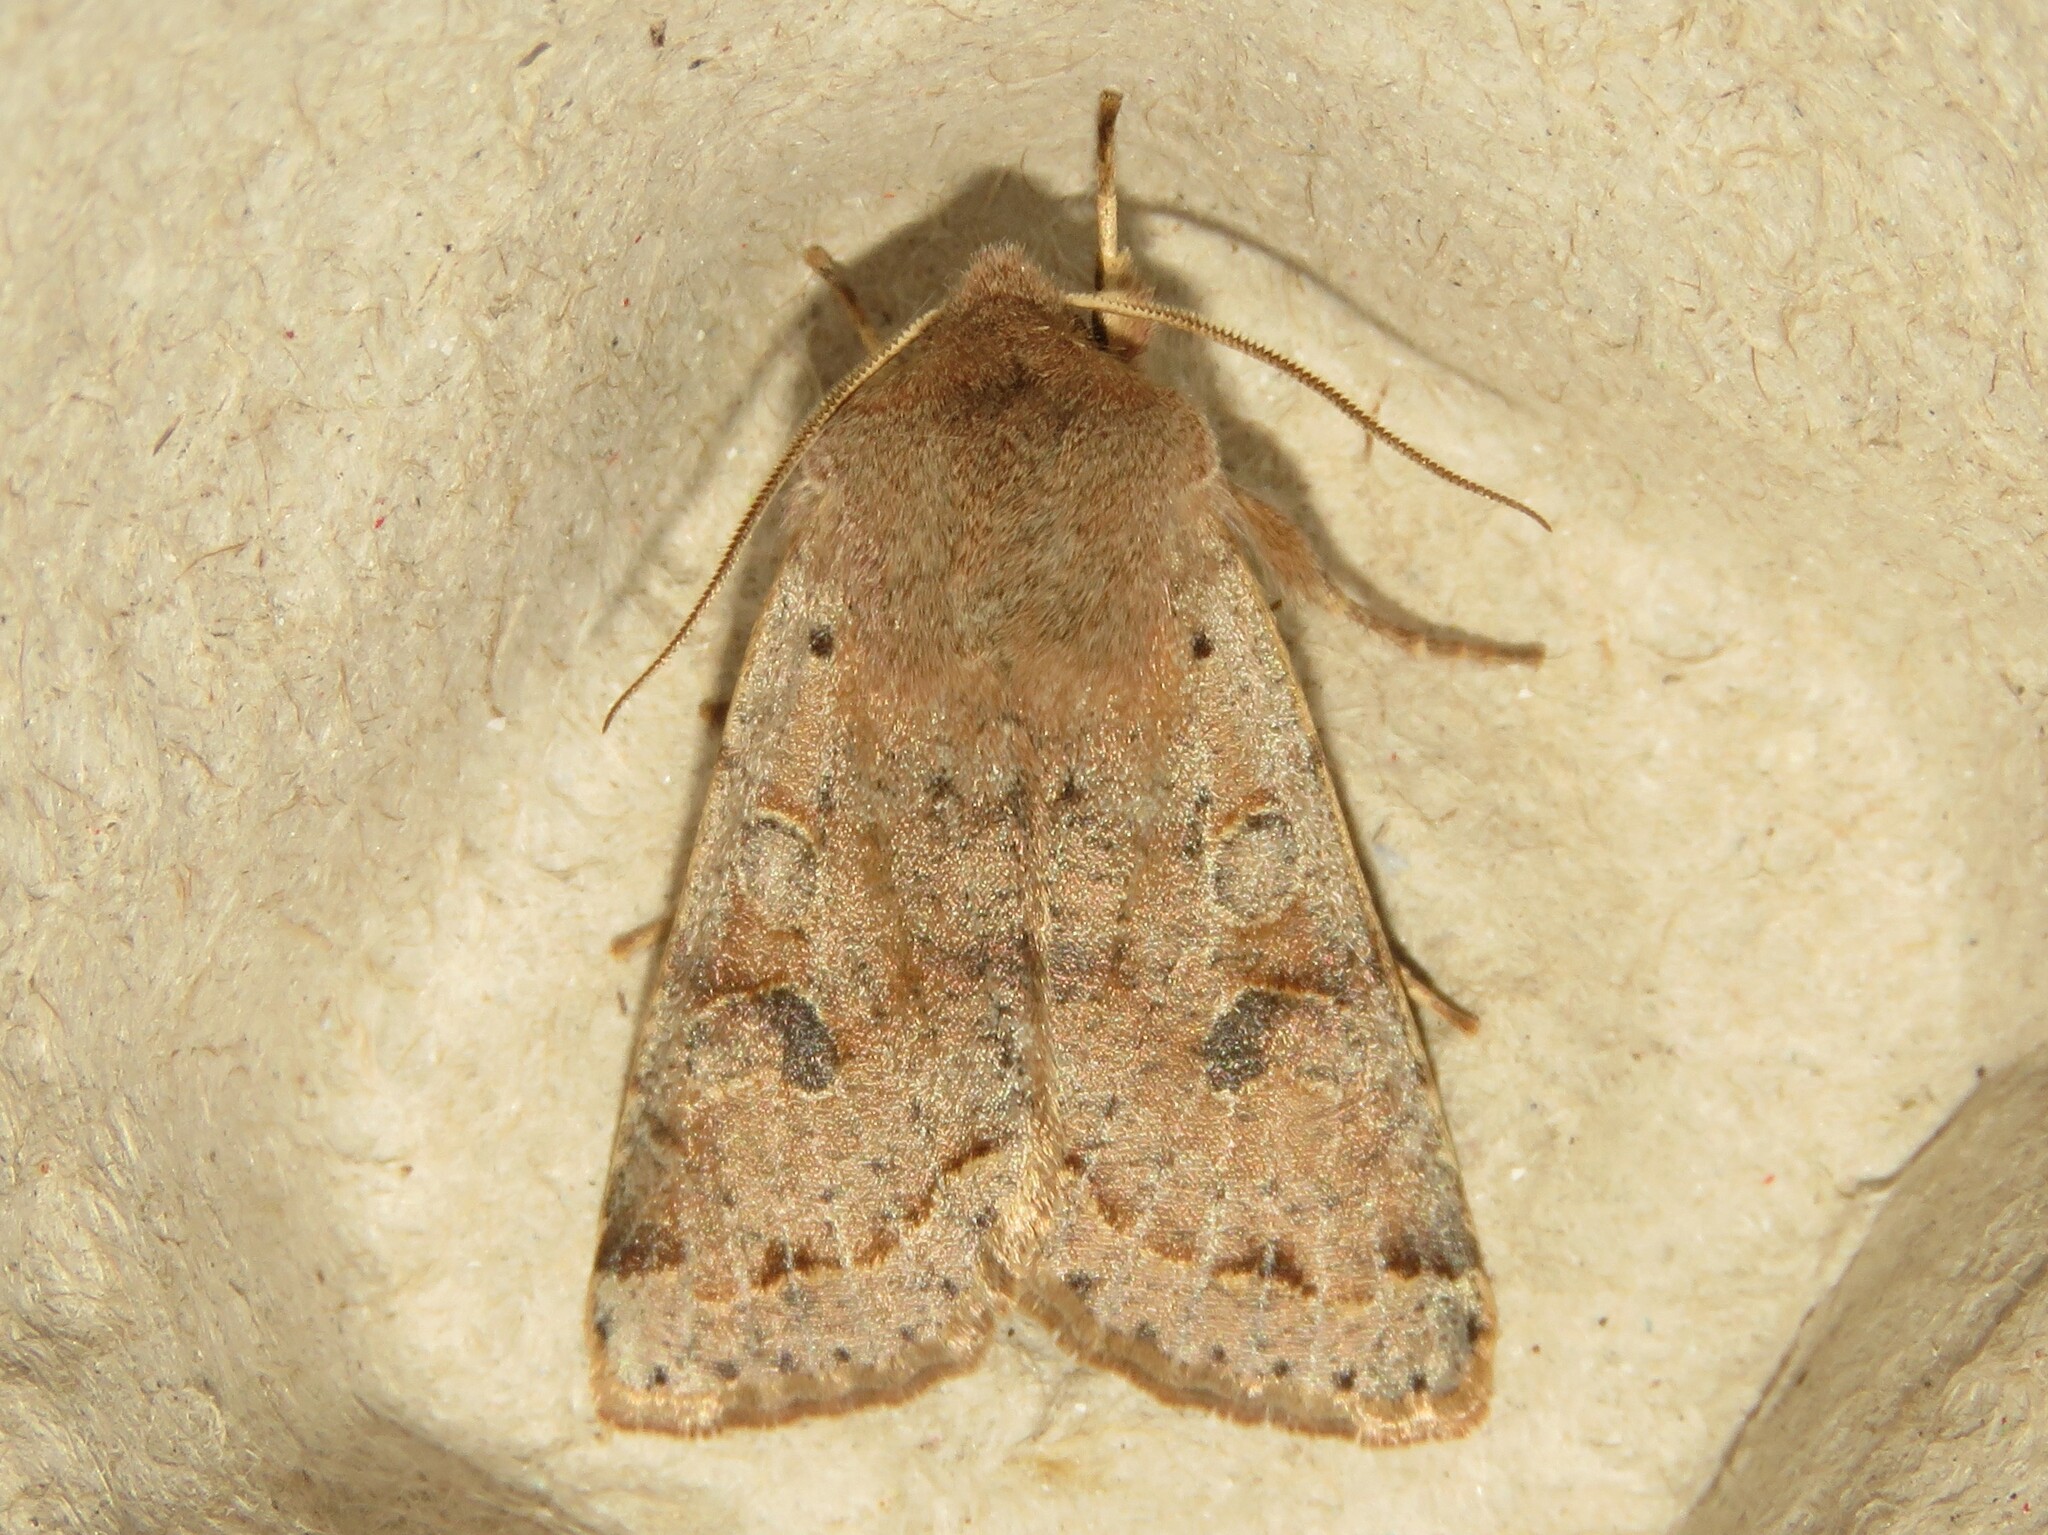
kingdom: Animalia
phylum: Arthropoda
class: Insecta
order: Lepidoptera
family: Noctuidae
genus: Orthosia
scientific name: Orthosia hibisci
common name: Green fruitworm
